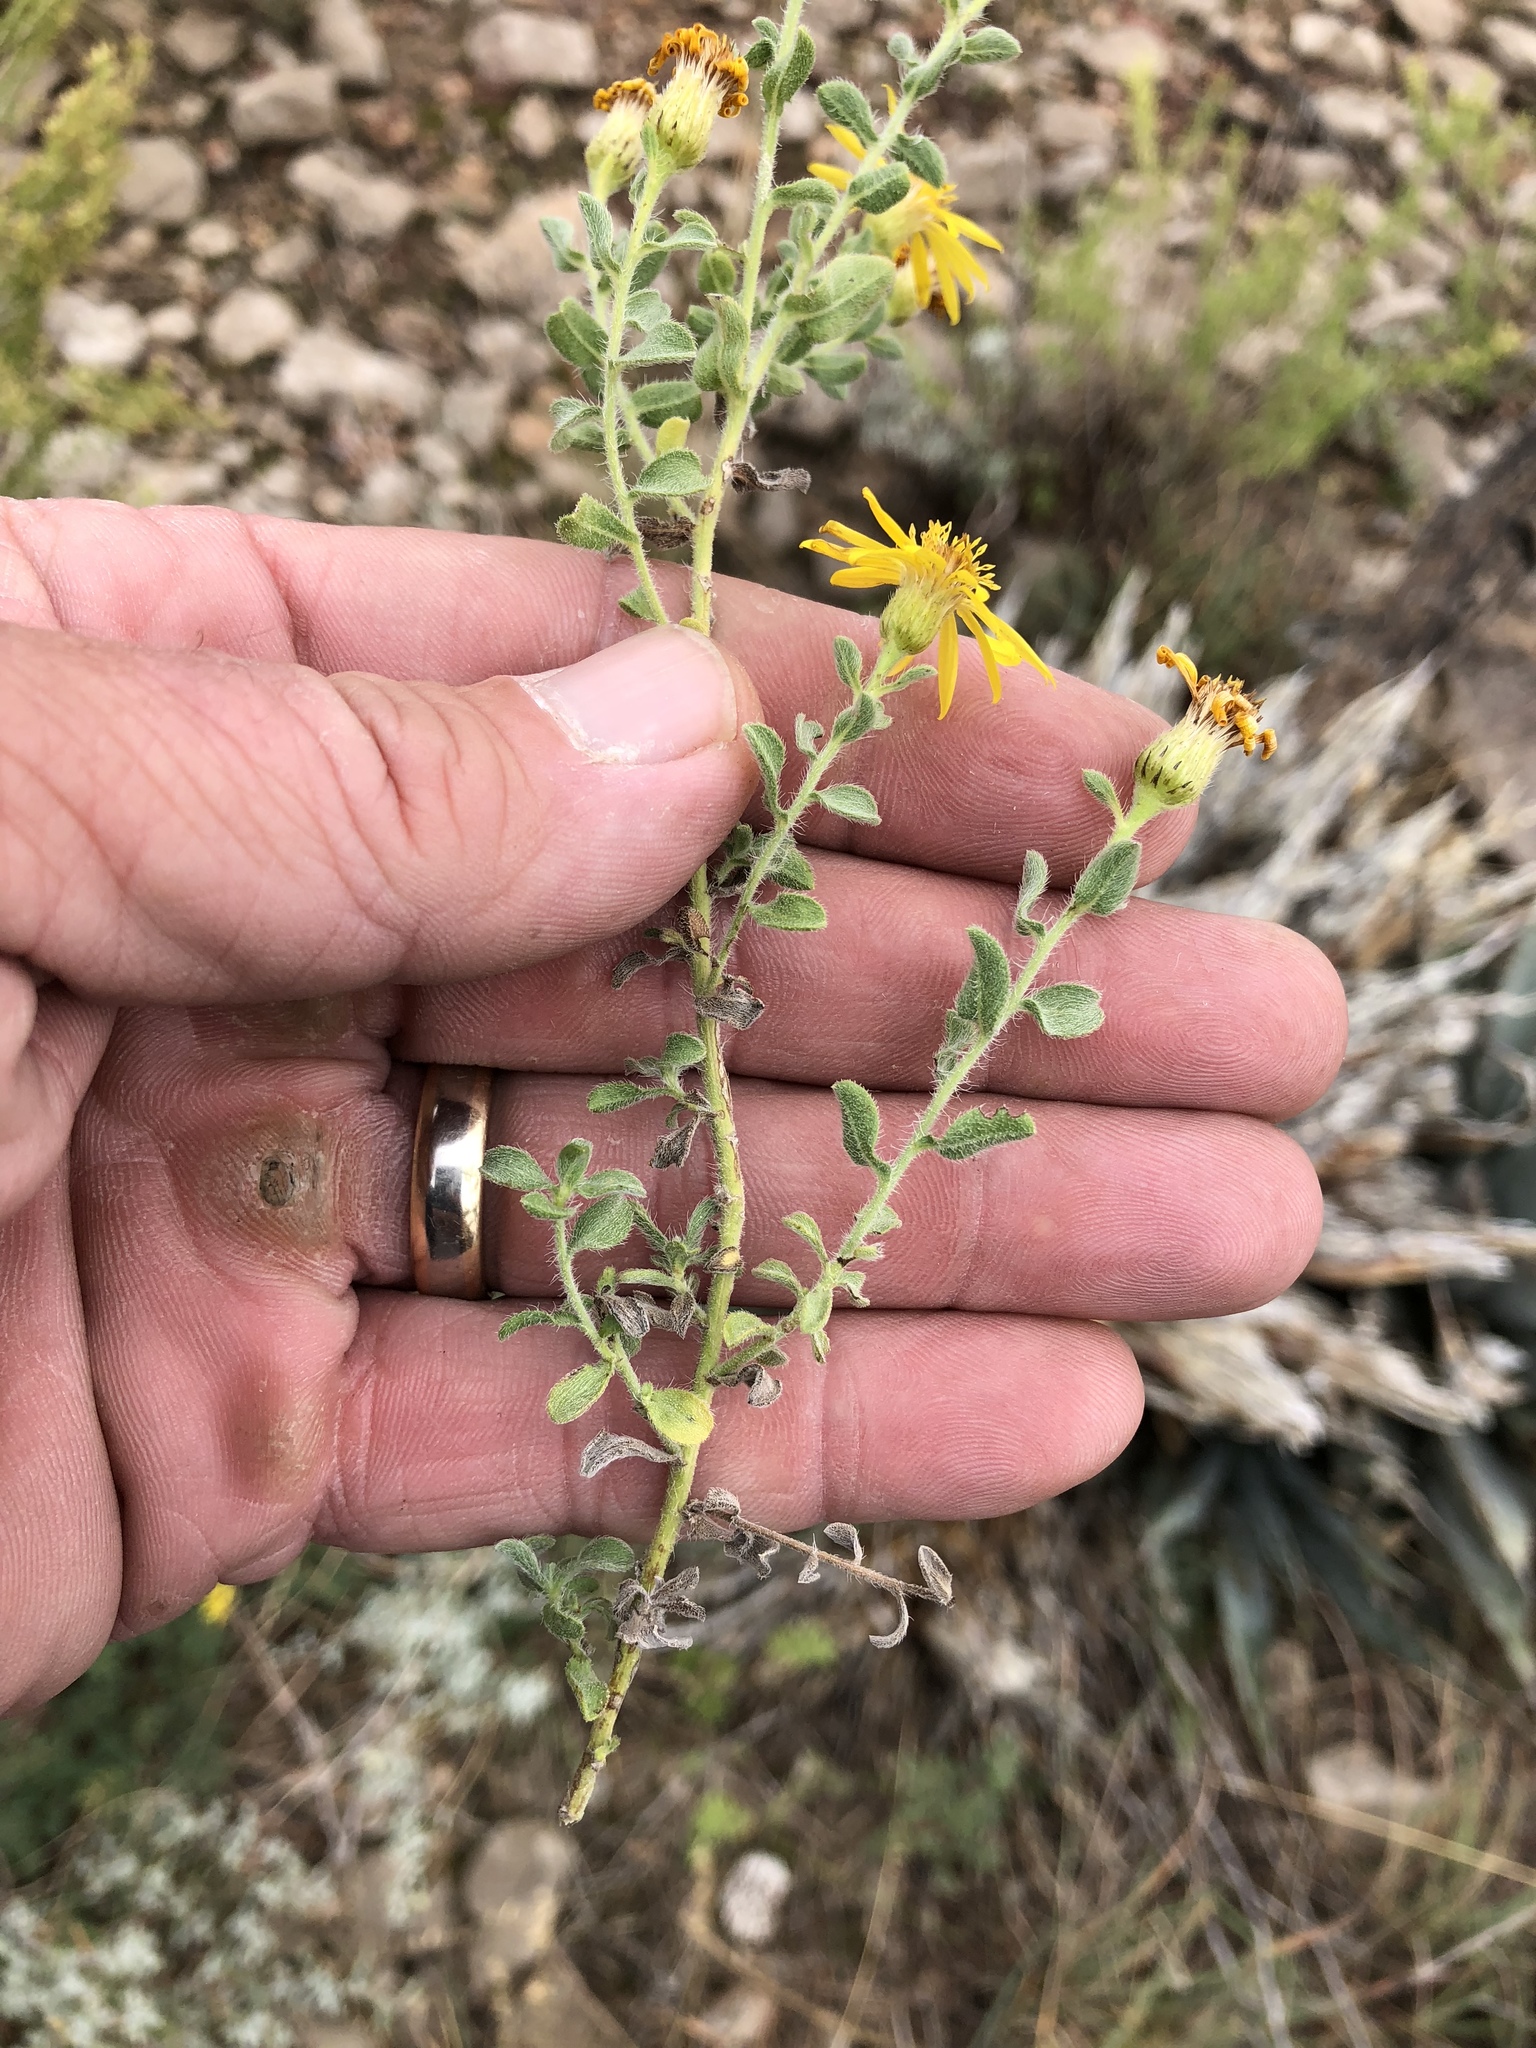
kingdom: Plantae
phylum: Tracheophyta
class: Magnoliopsida
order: Asterales
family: Asteraceae
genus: Heterotheca
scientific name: Heterotheca hirsutissima
